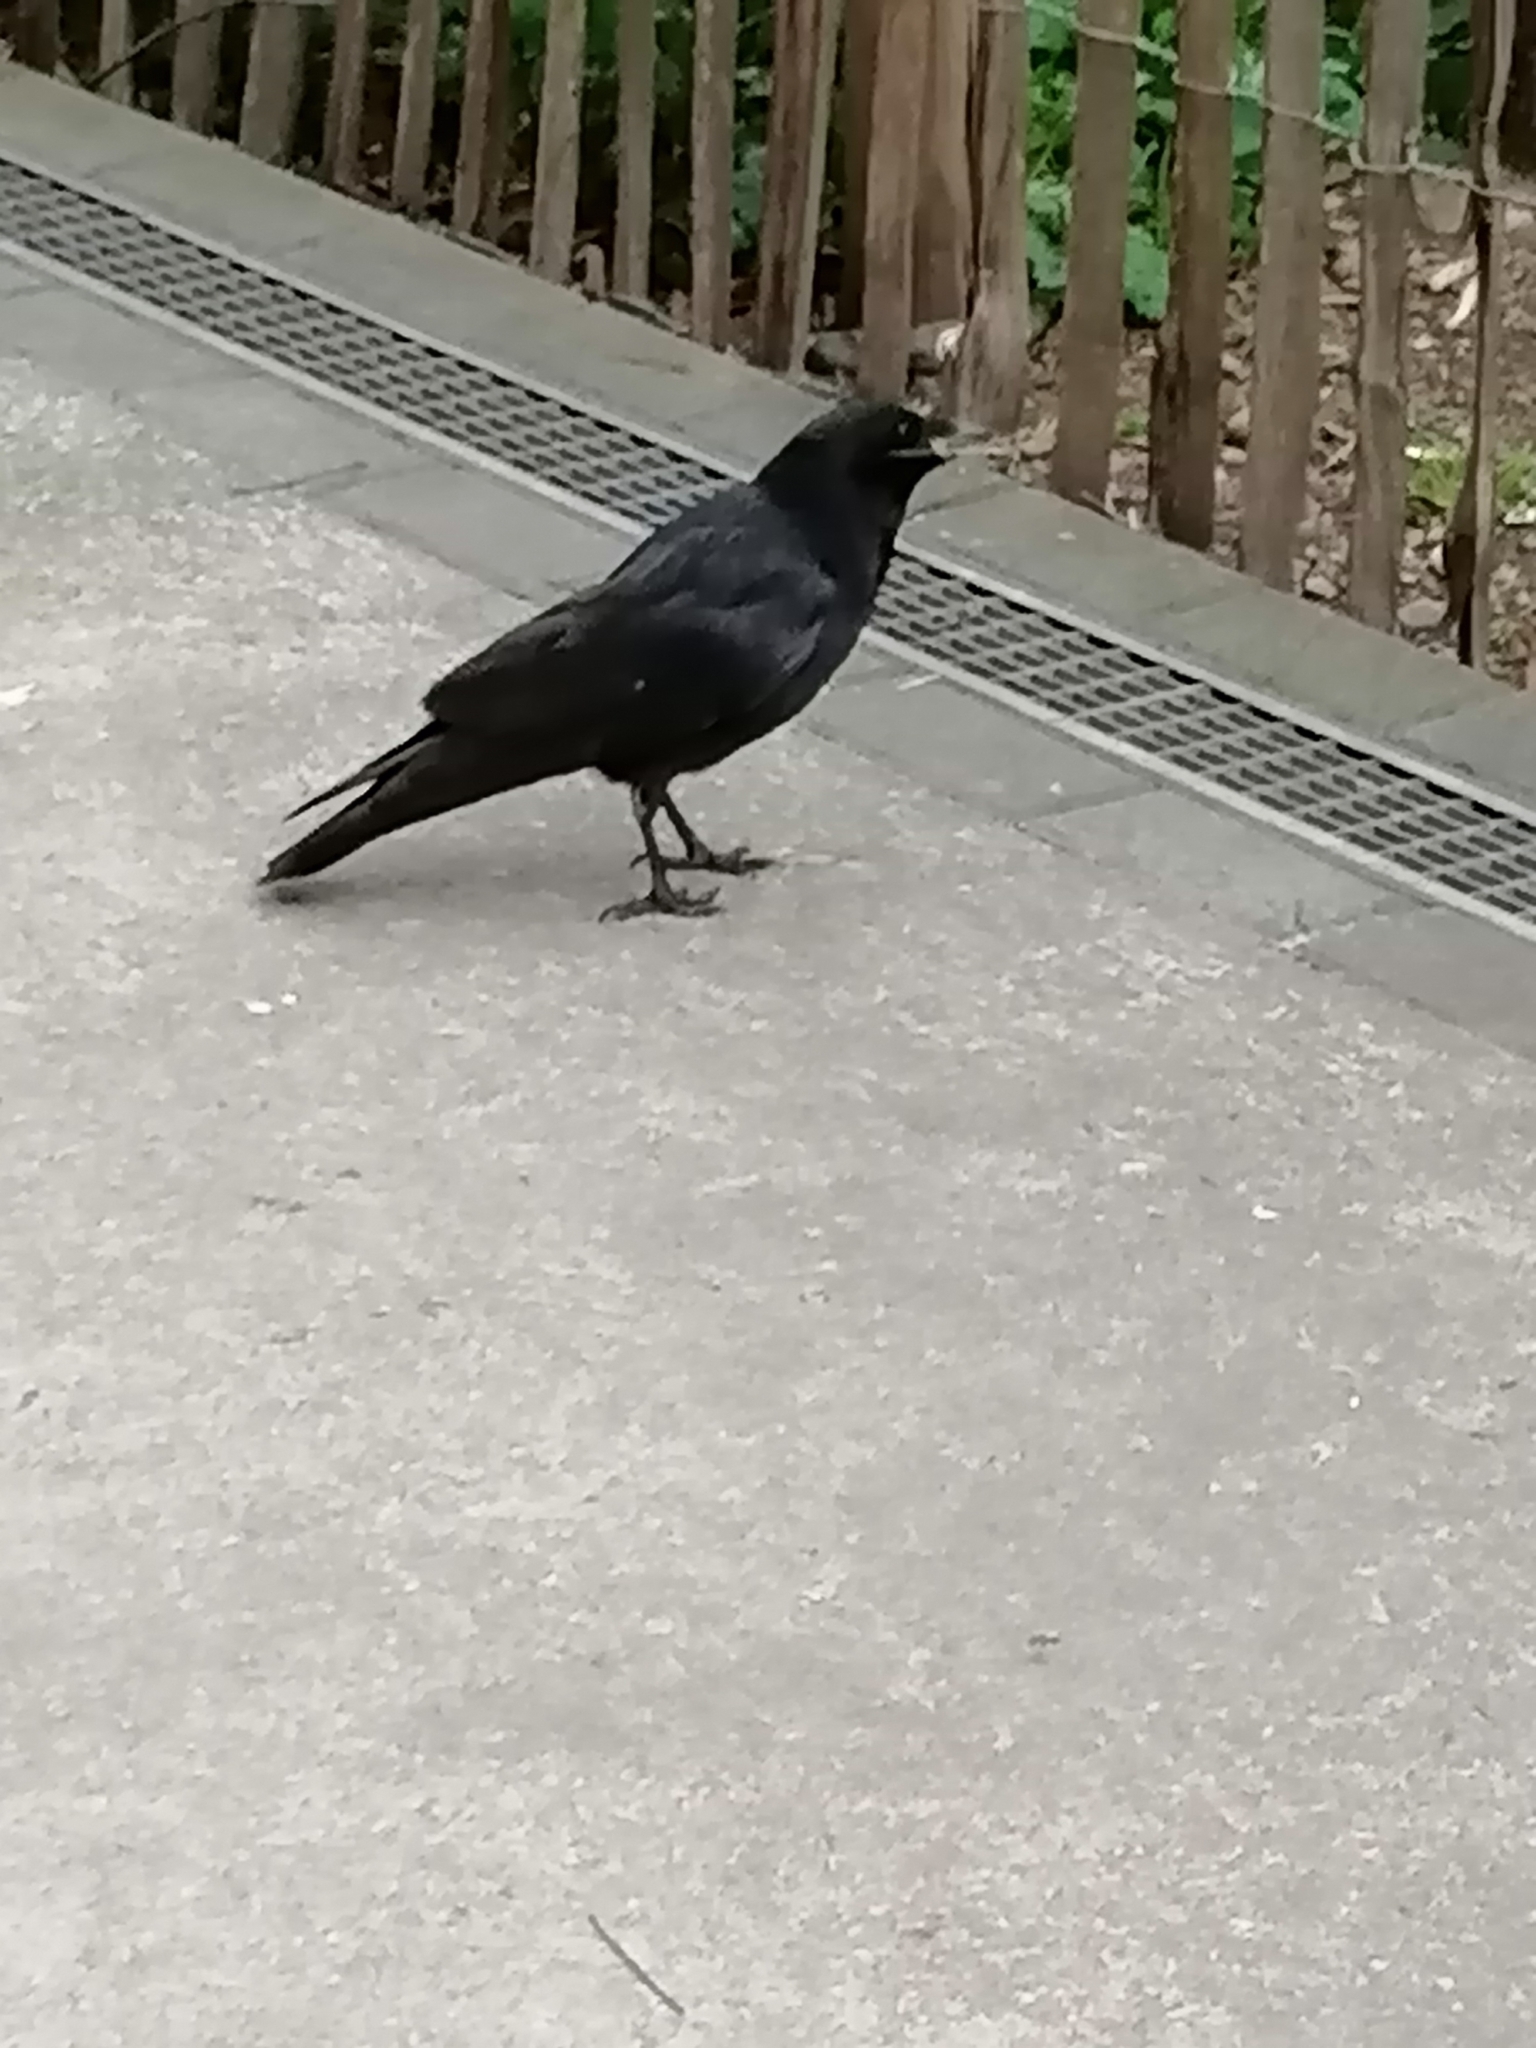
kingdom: Animalia
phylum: Chordata
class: Aves
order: Passeriformes
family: Corvidae
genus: Corvus
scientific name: Corvus corone
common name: Carrion crow
